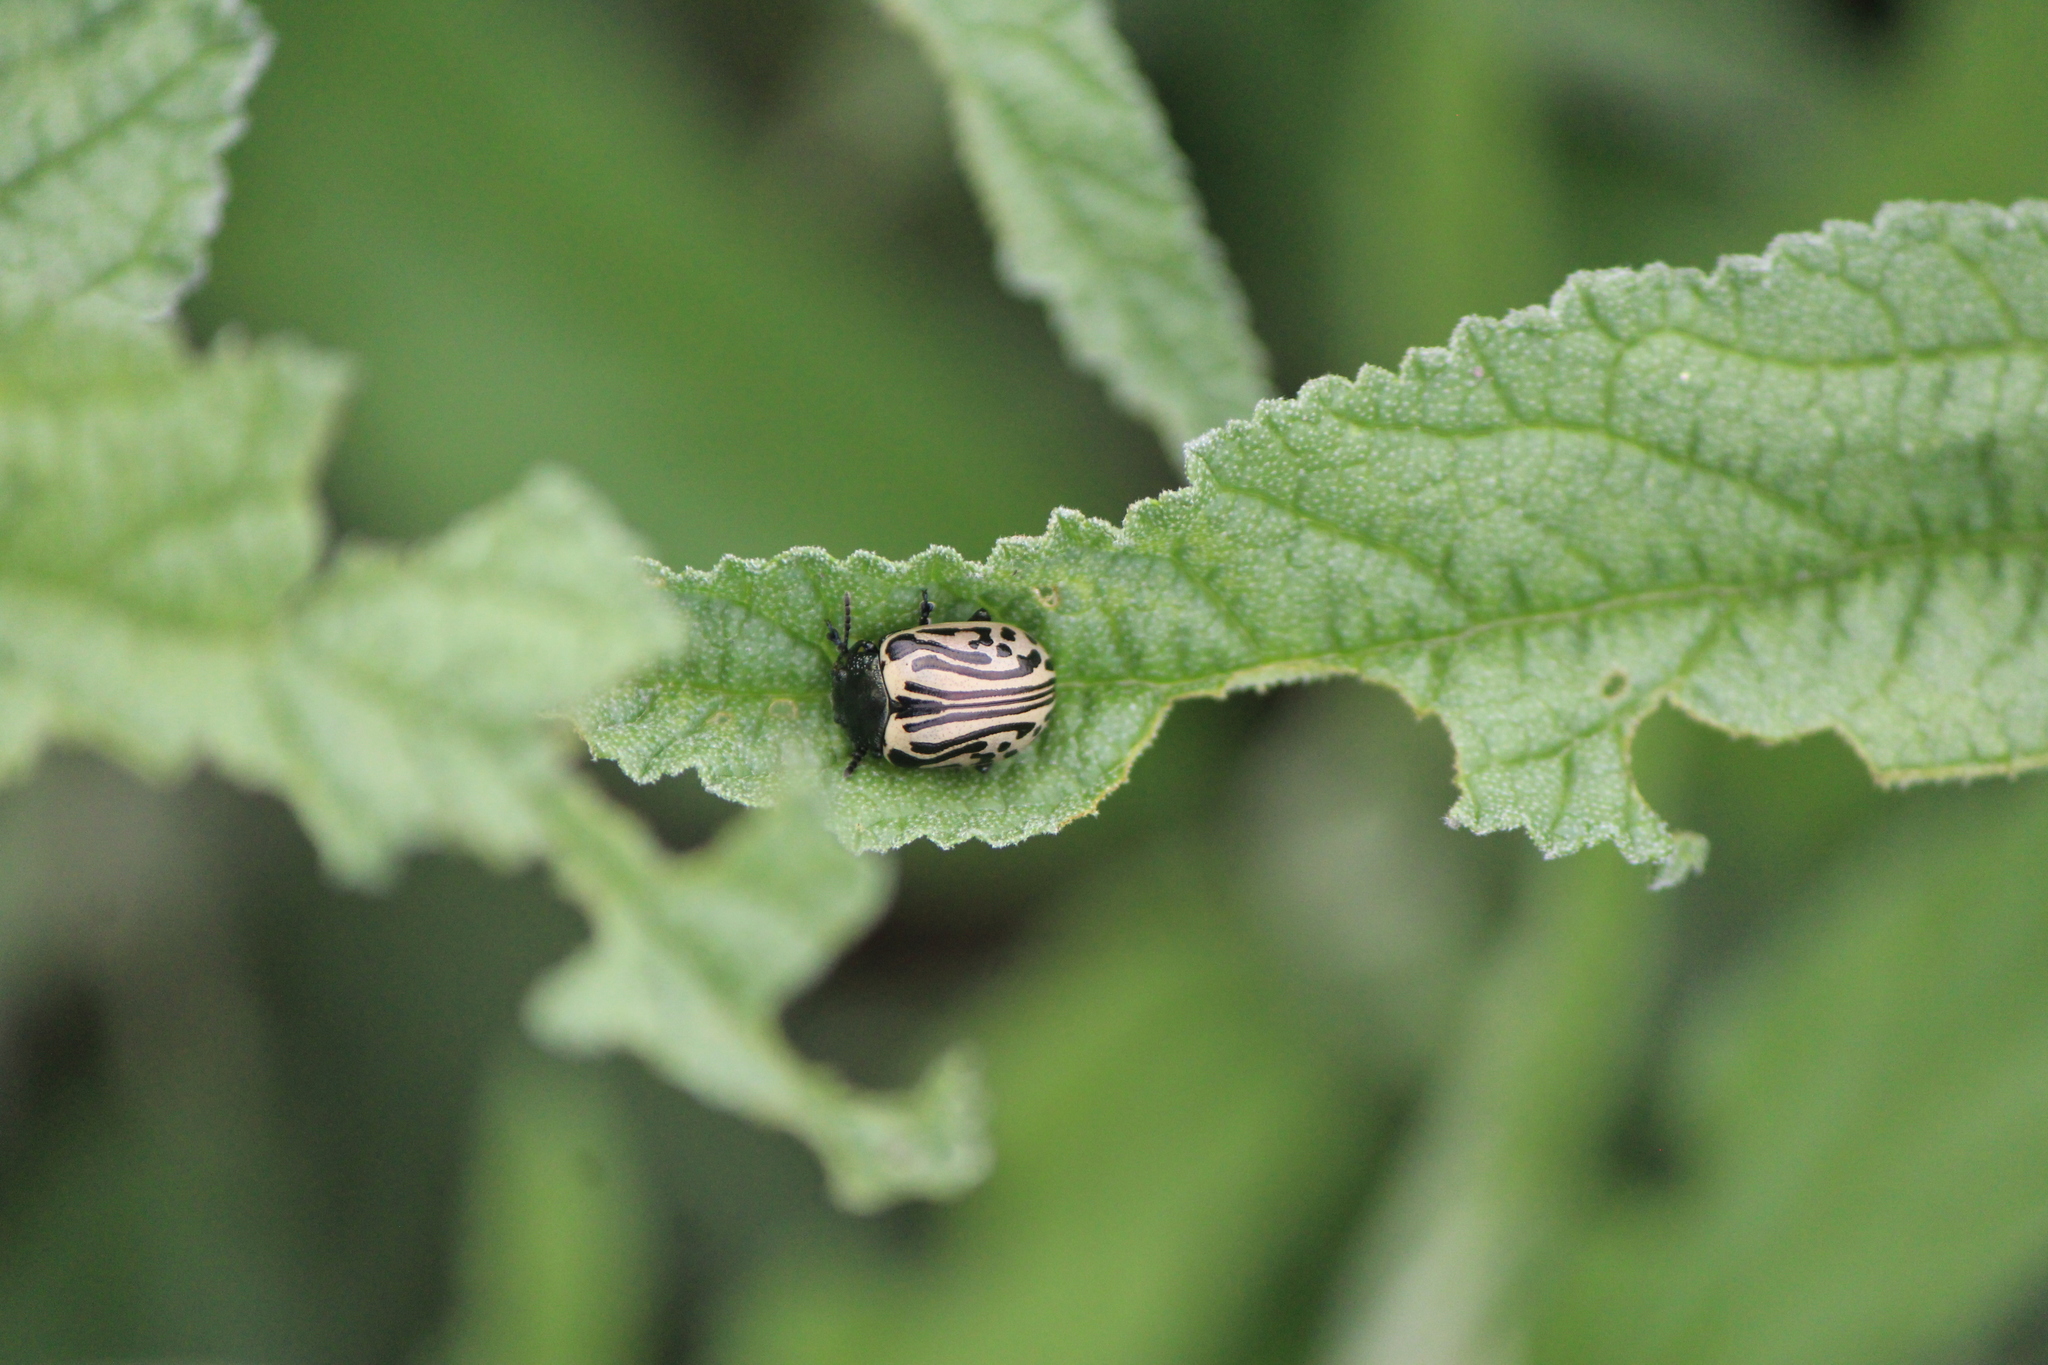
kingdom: Animalia
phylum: Arthropoda
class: Insecta
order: Coleoptera
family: Chrysomelidae
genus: Calligrapha
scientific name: Calligrapha dislocata
